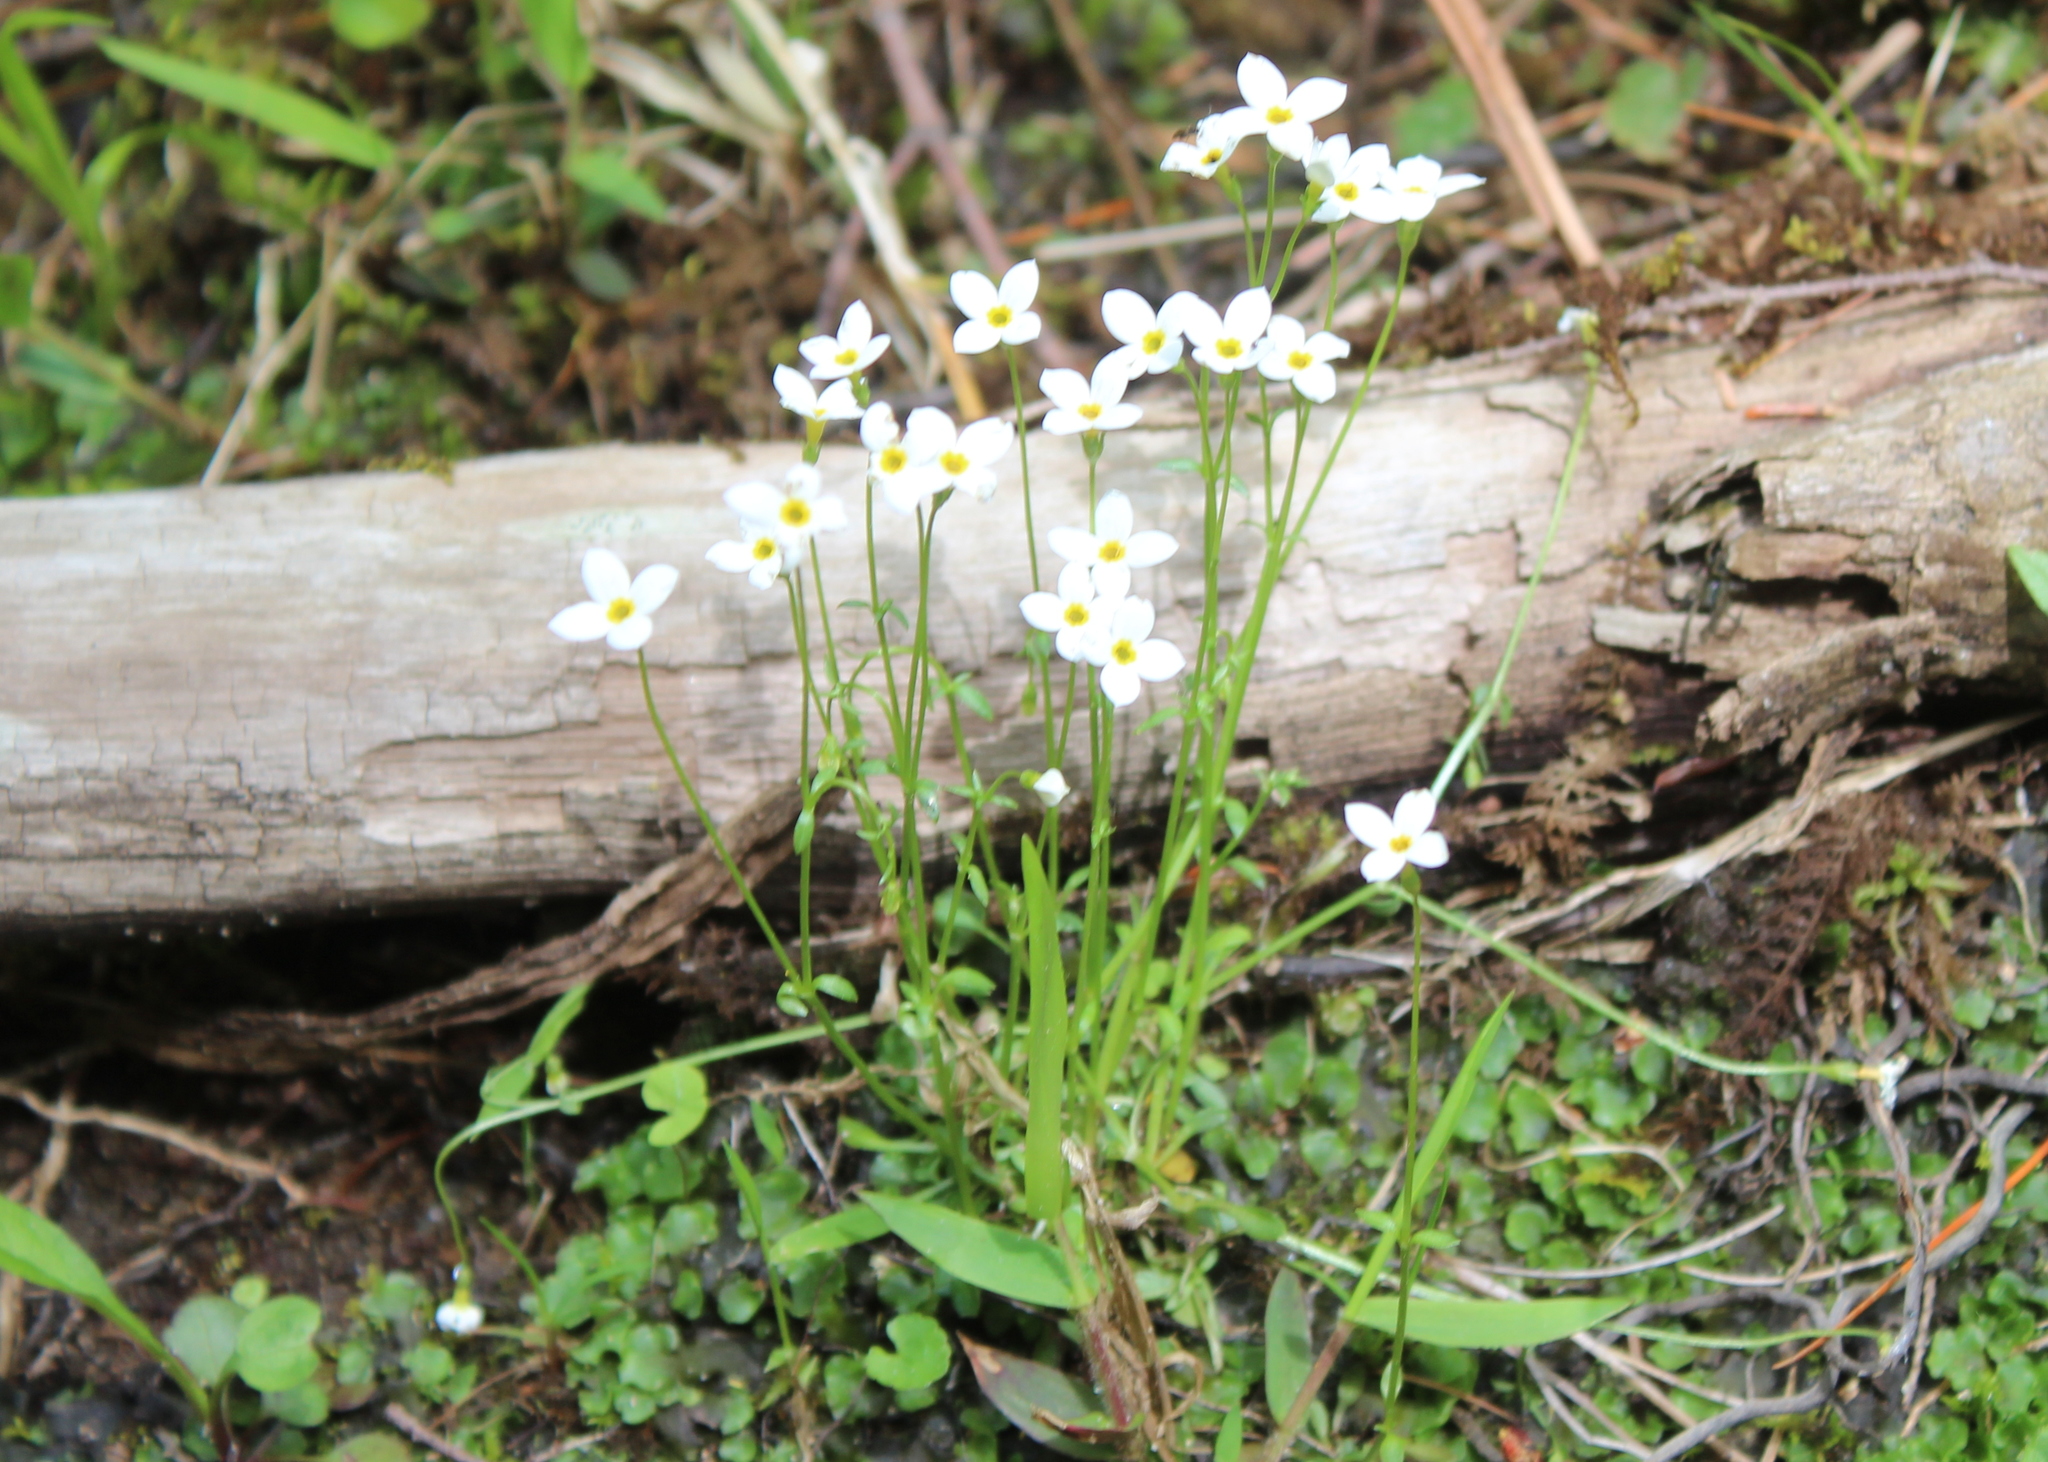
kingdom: Plantae
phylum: Tracheophyta
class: Magnoliopsida
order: Gentianales
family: Rubiaceae
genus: Houstonia
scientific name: Houstonia caerulea
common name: Bluets
